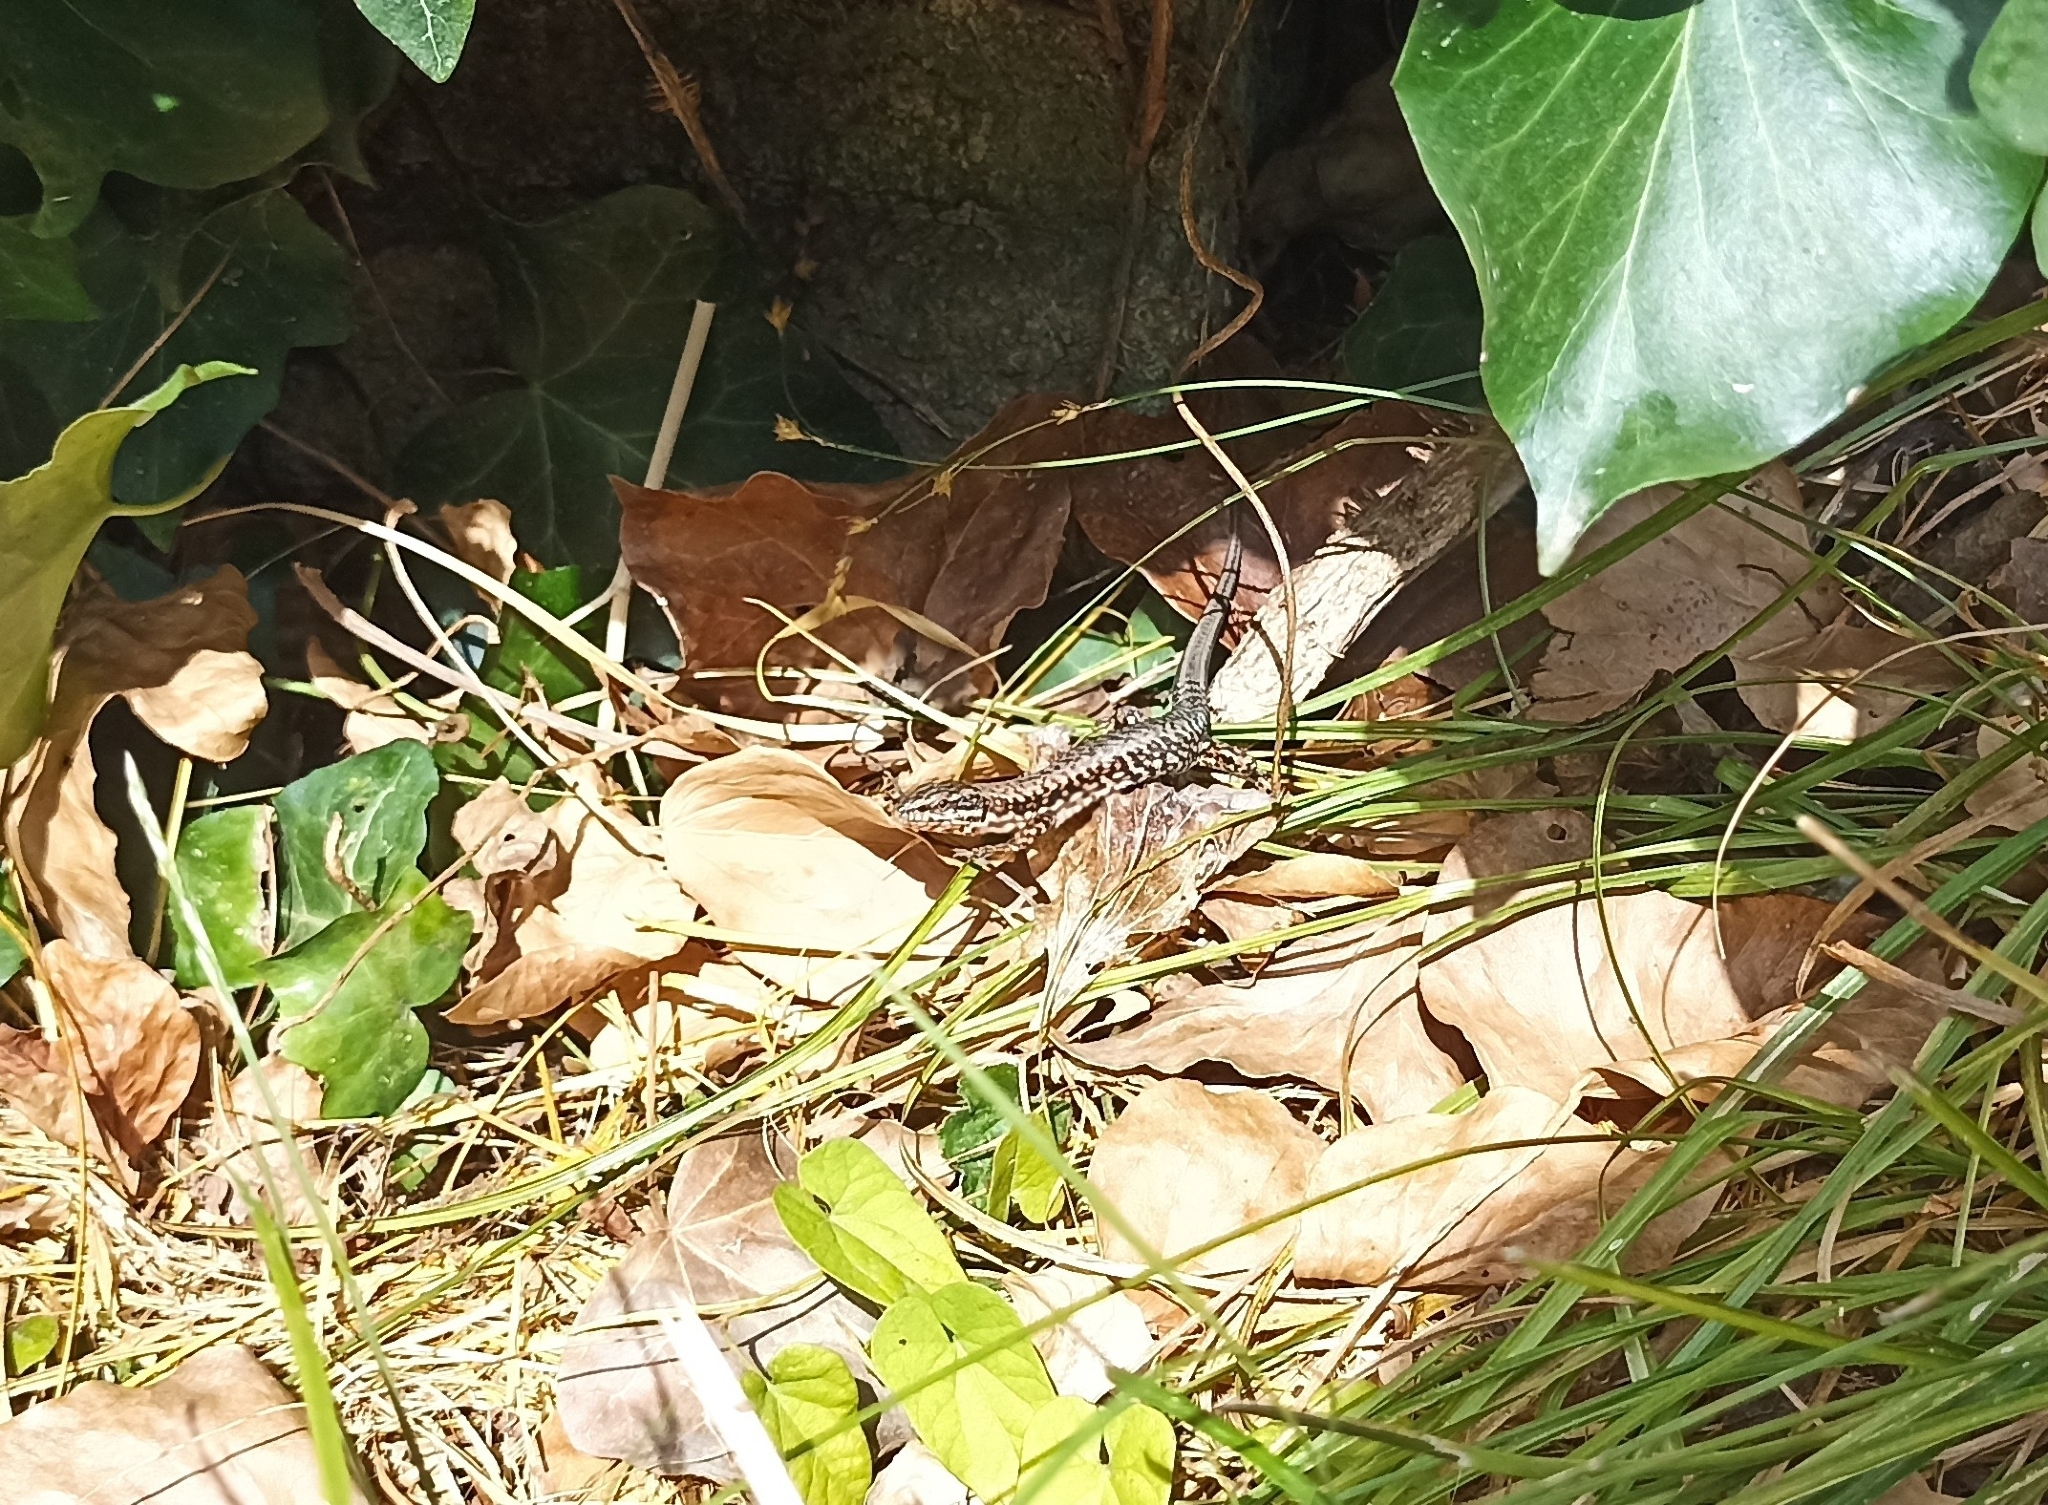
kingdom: Animalia
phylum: Chordata
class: Squamata
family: Lacertidae
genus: Podarcis
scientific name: Podarcis muralis
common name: Common wall lizard
